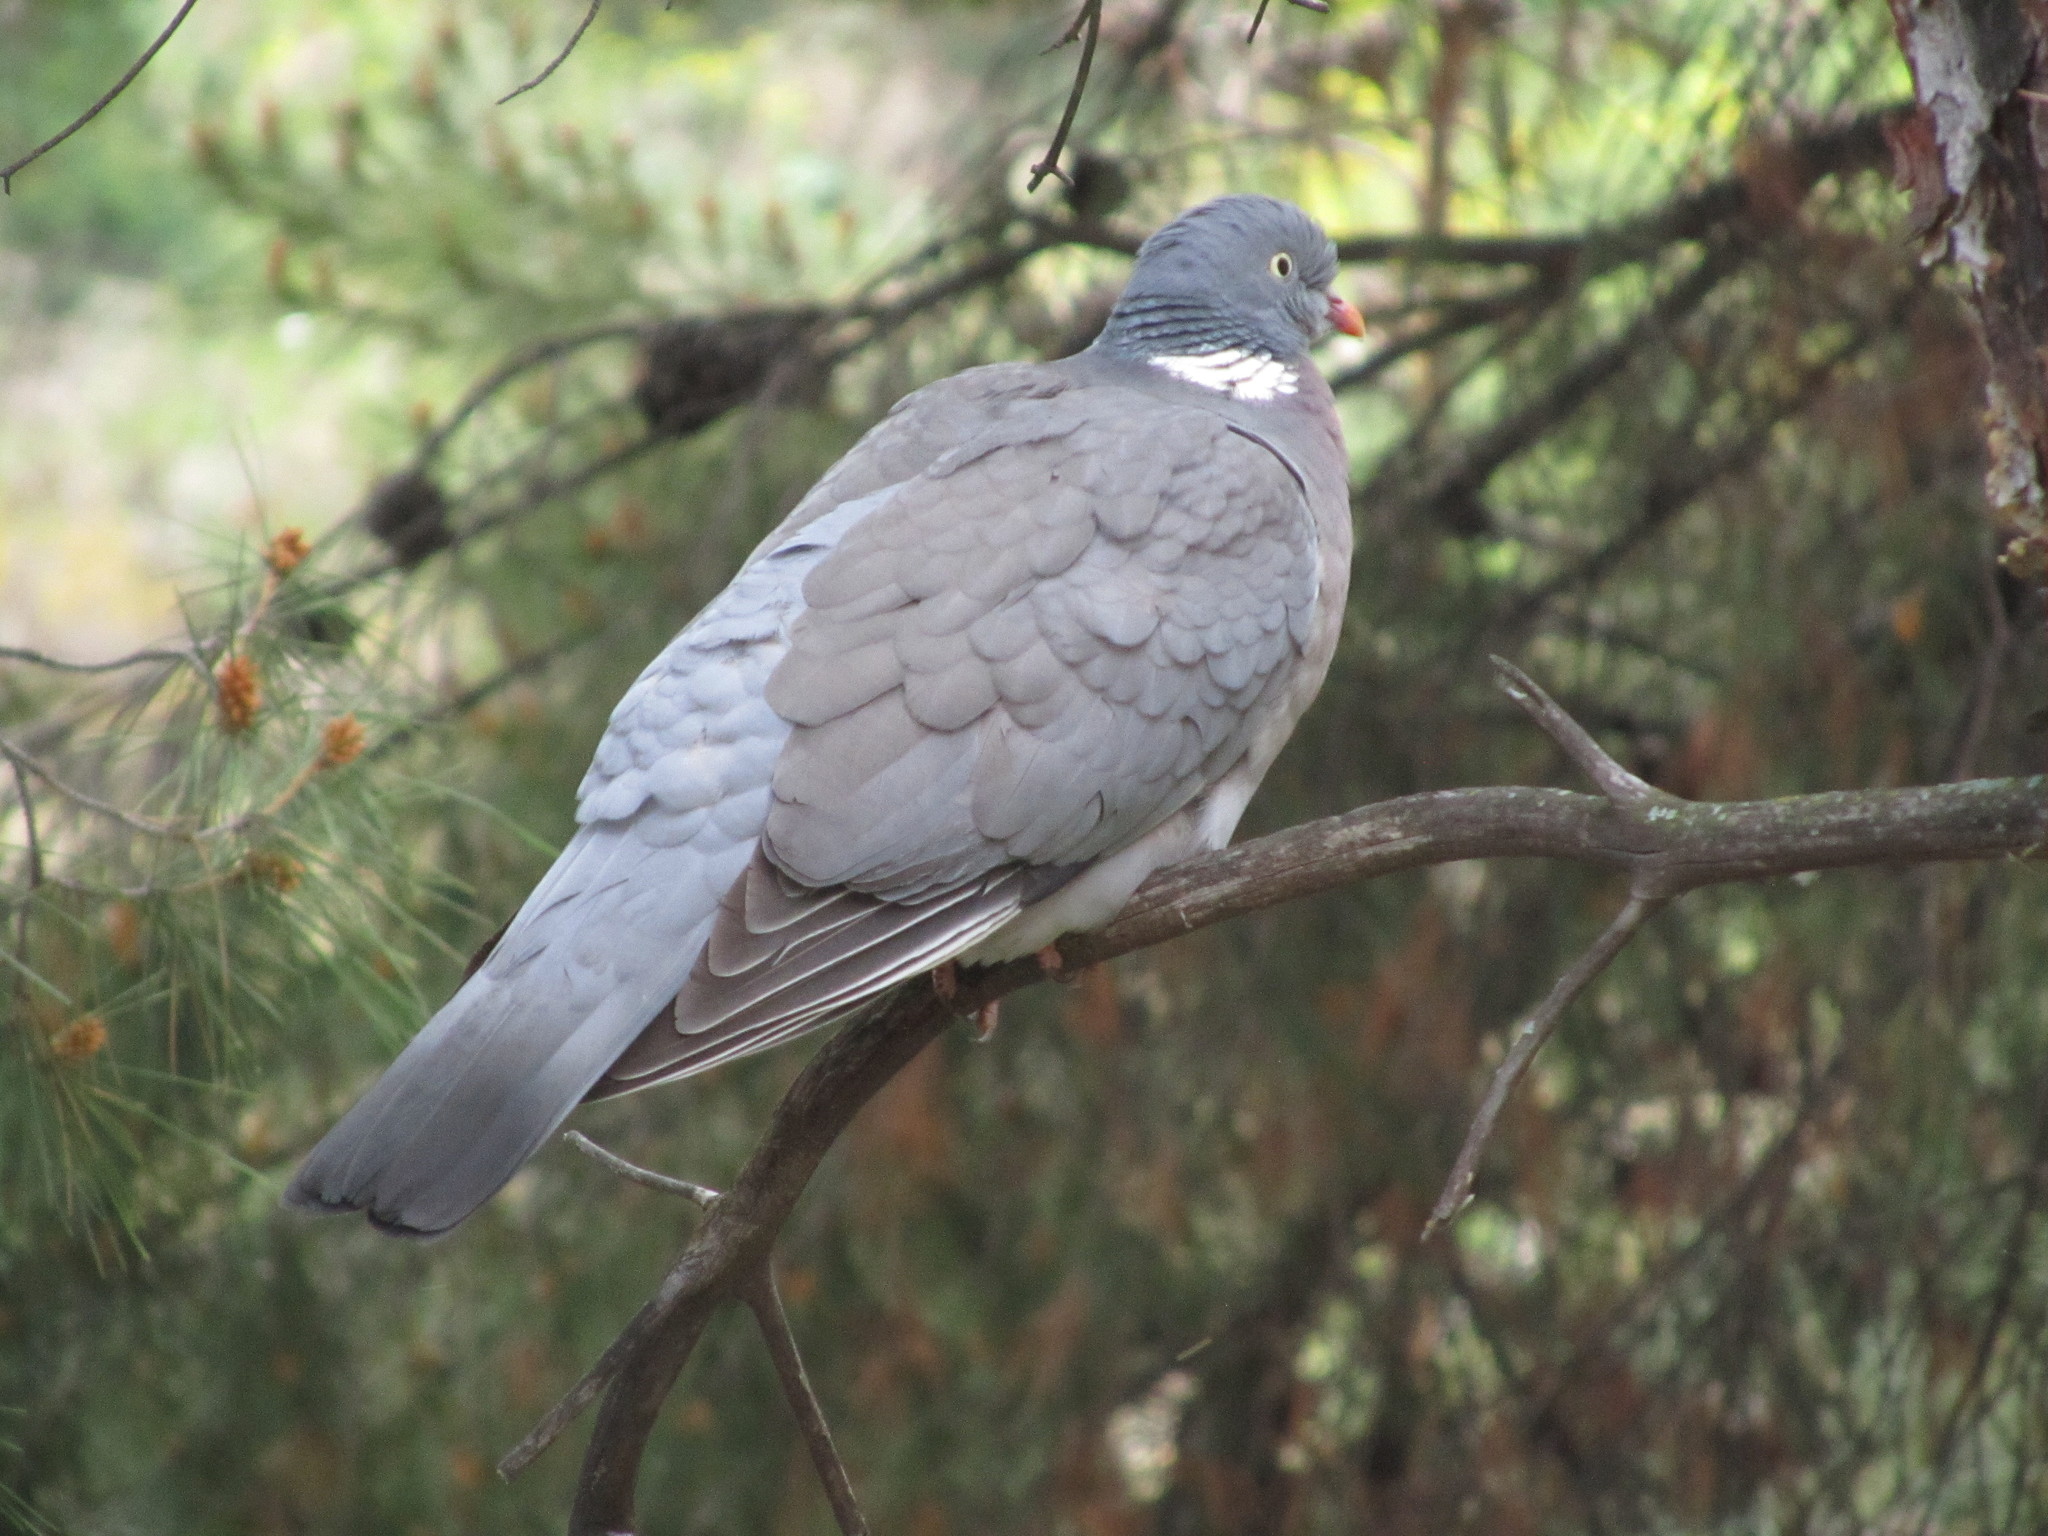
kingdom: Animalia
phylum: Chordata
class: Aves
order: Columbiformes
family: Columbidae
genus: Columba
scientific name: Columba palumbus
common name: Common wood pigeon
